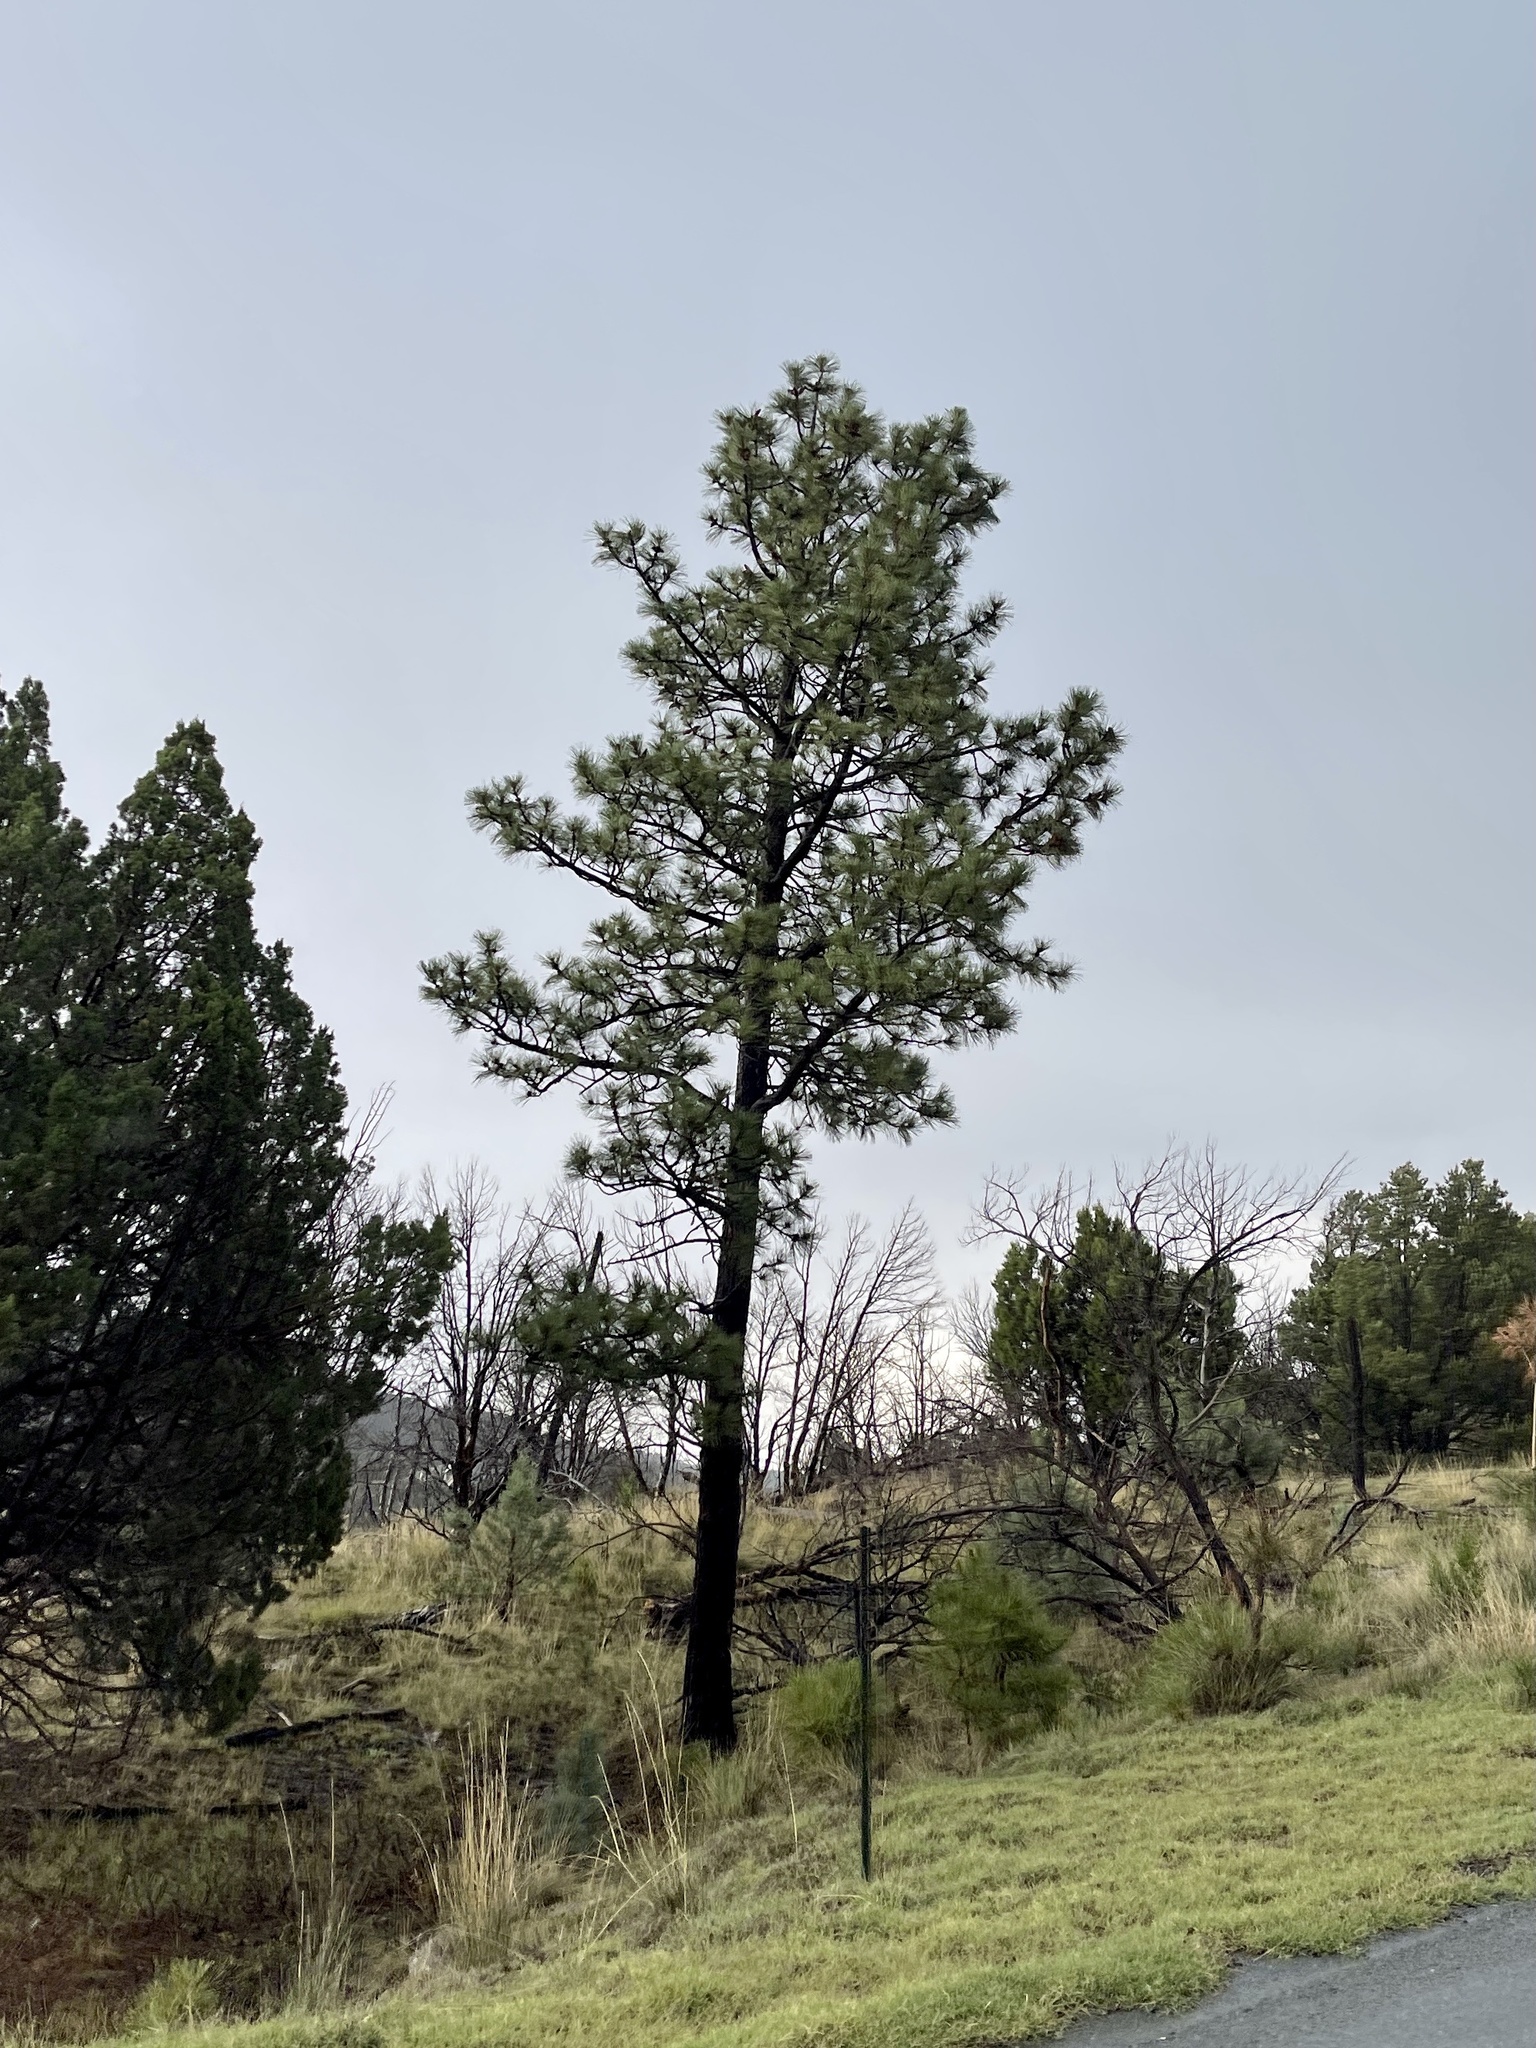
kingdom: Plantae
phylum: Tracheophyta
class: Pinopsida
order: Pinales
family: Pinaceae
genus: Pinus
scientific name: Pinus ponderosa
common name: Western yellow-pine
